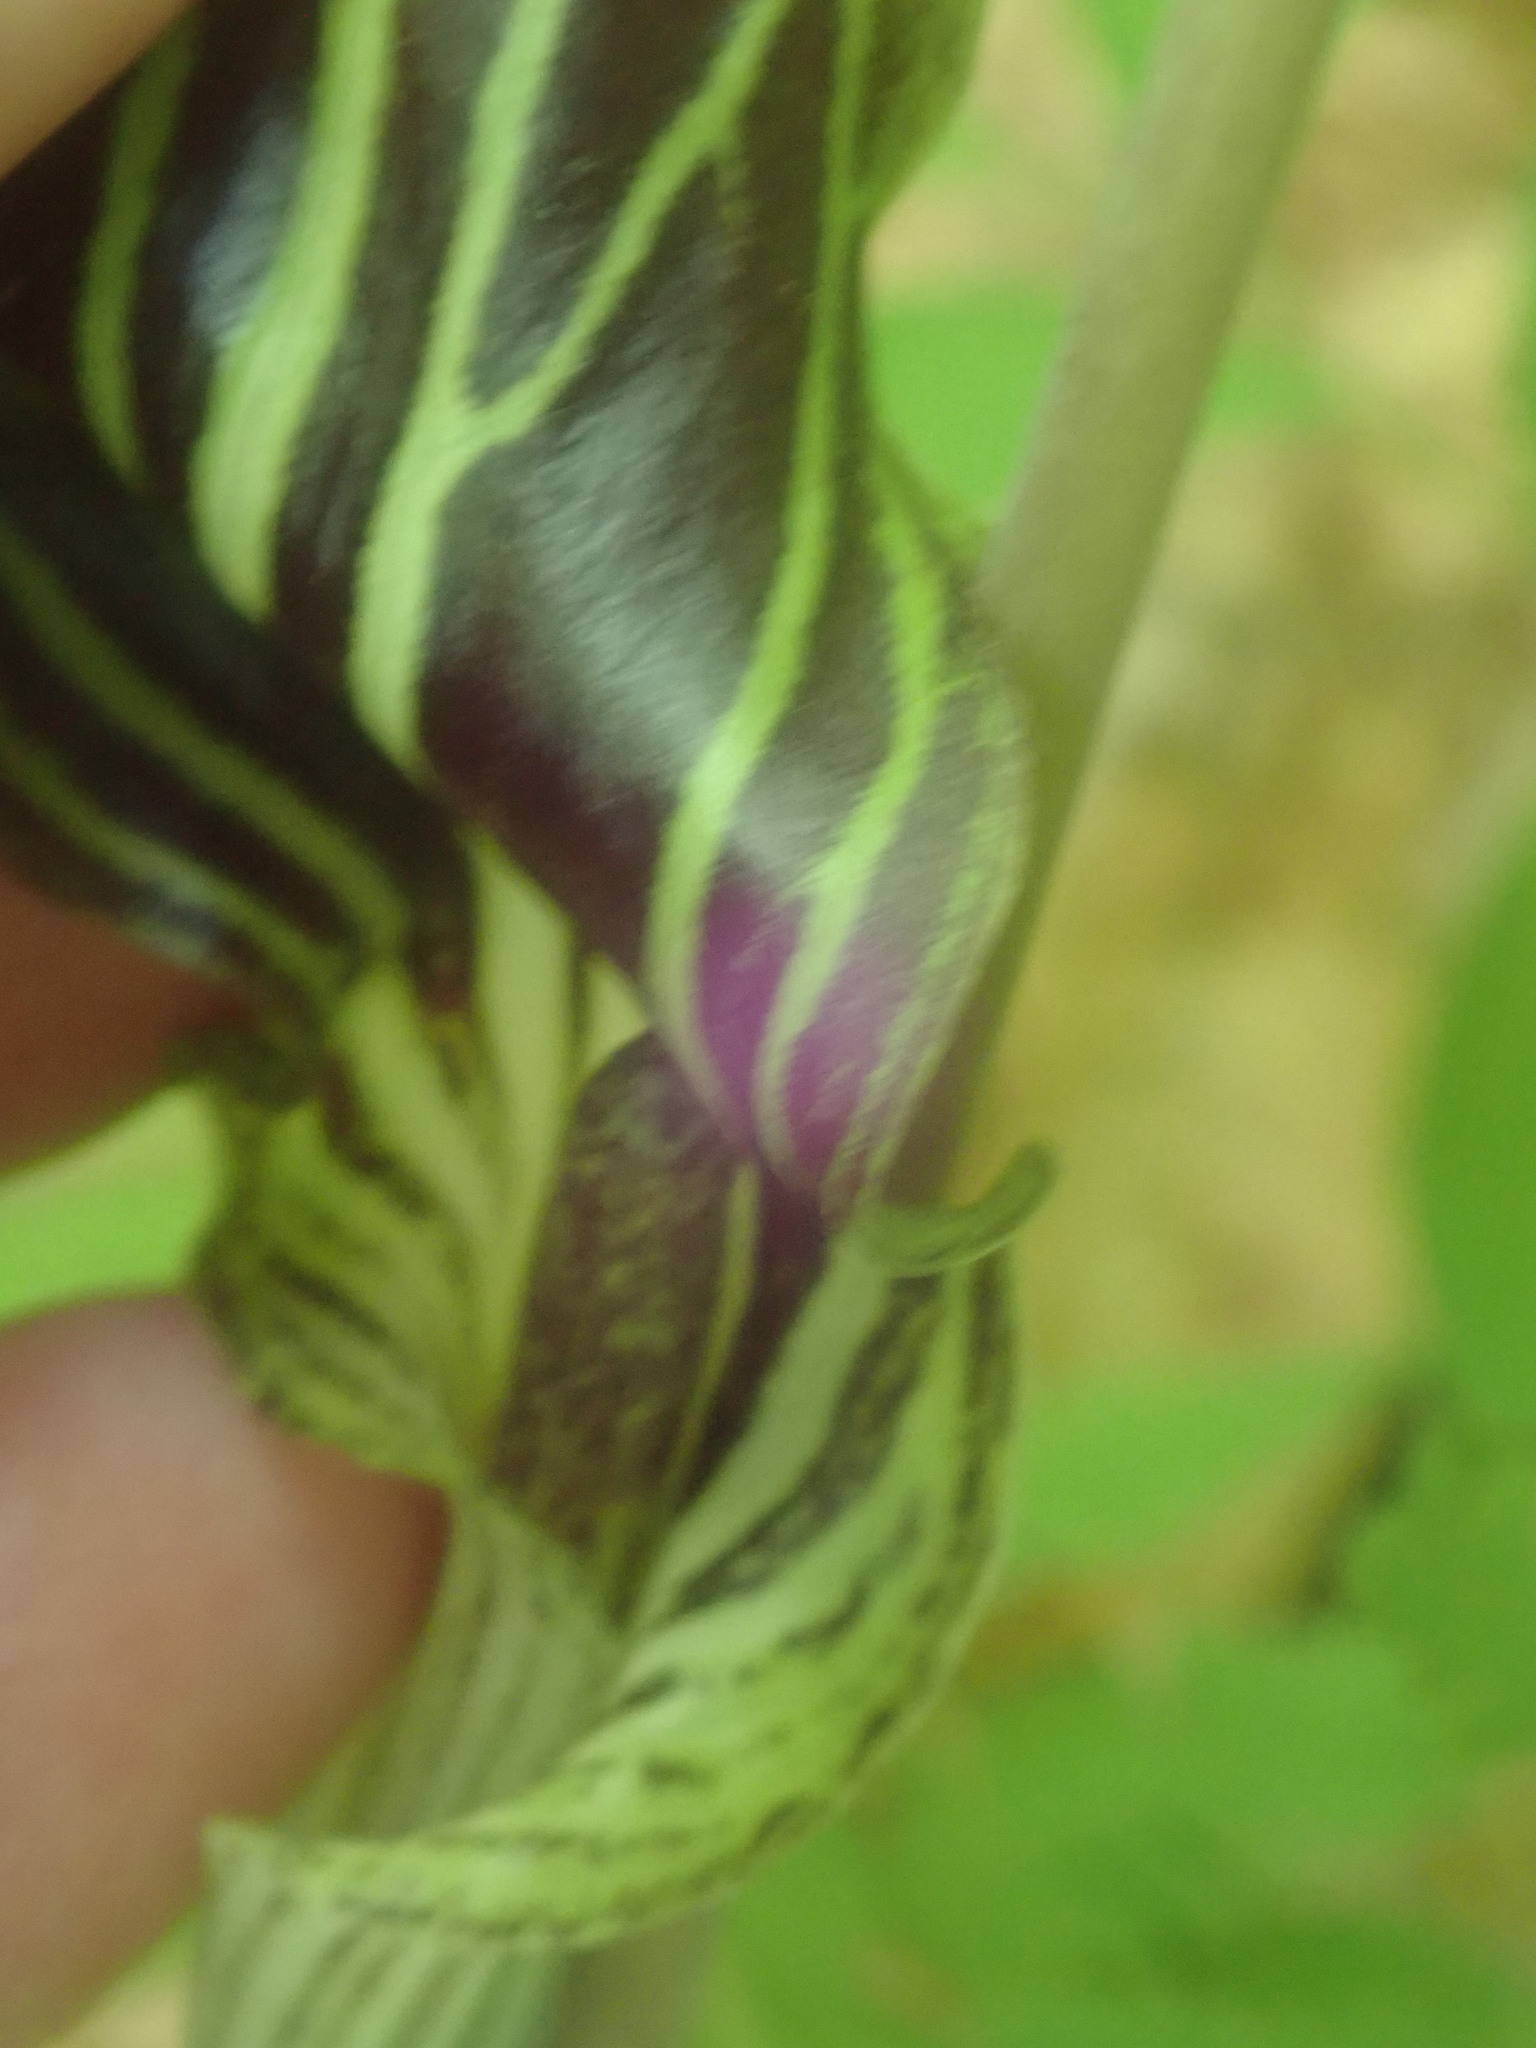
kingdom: Plantae
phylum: Tracheophyta
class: Liliopsida
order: Alismatales
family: Araceae
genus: Arisaema
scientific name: Arisaema triphyllum
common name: Jack-in-the-pulpit
